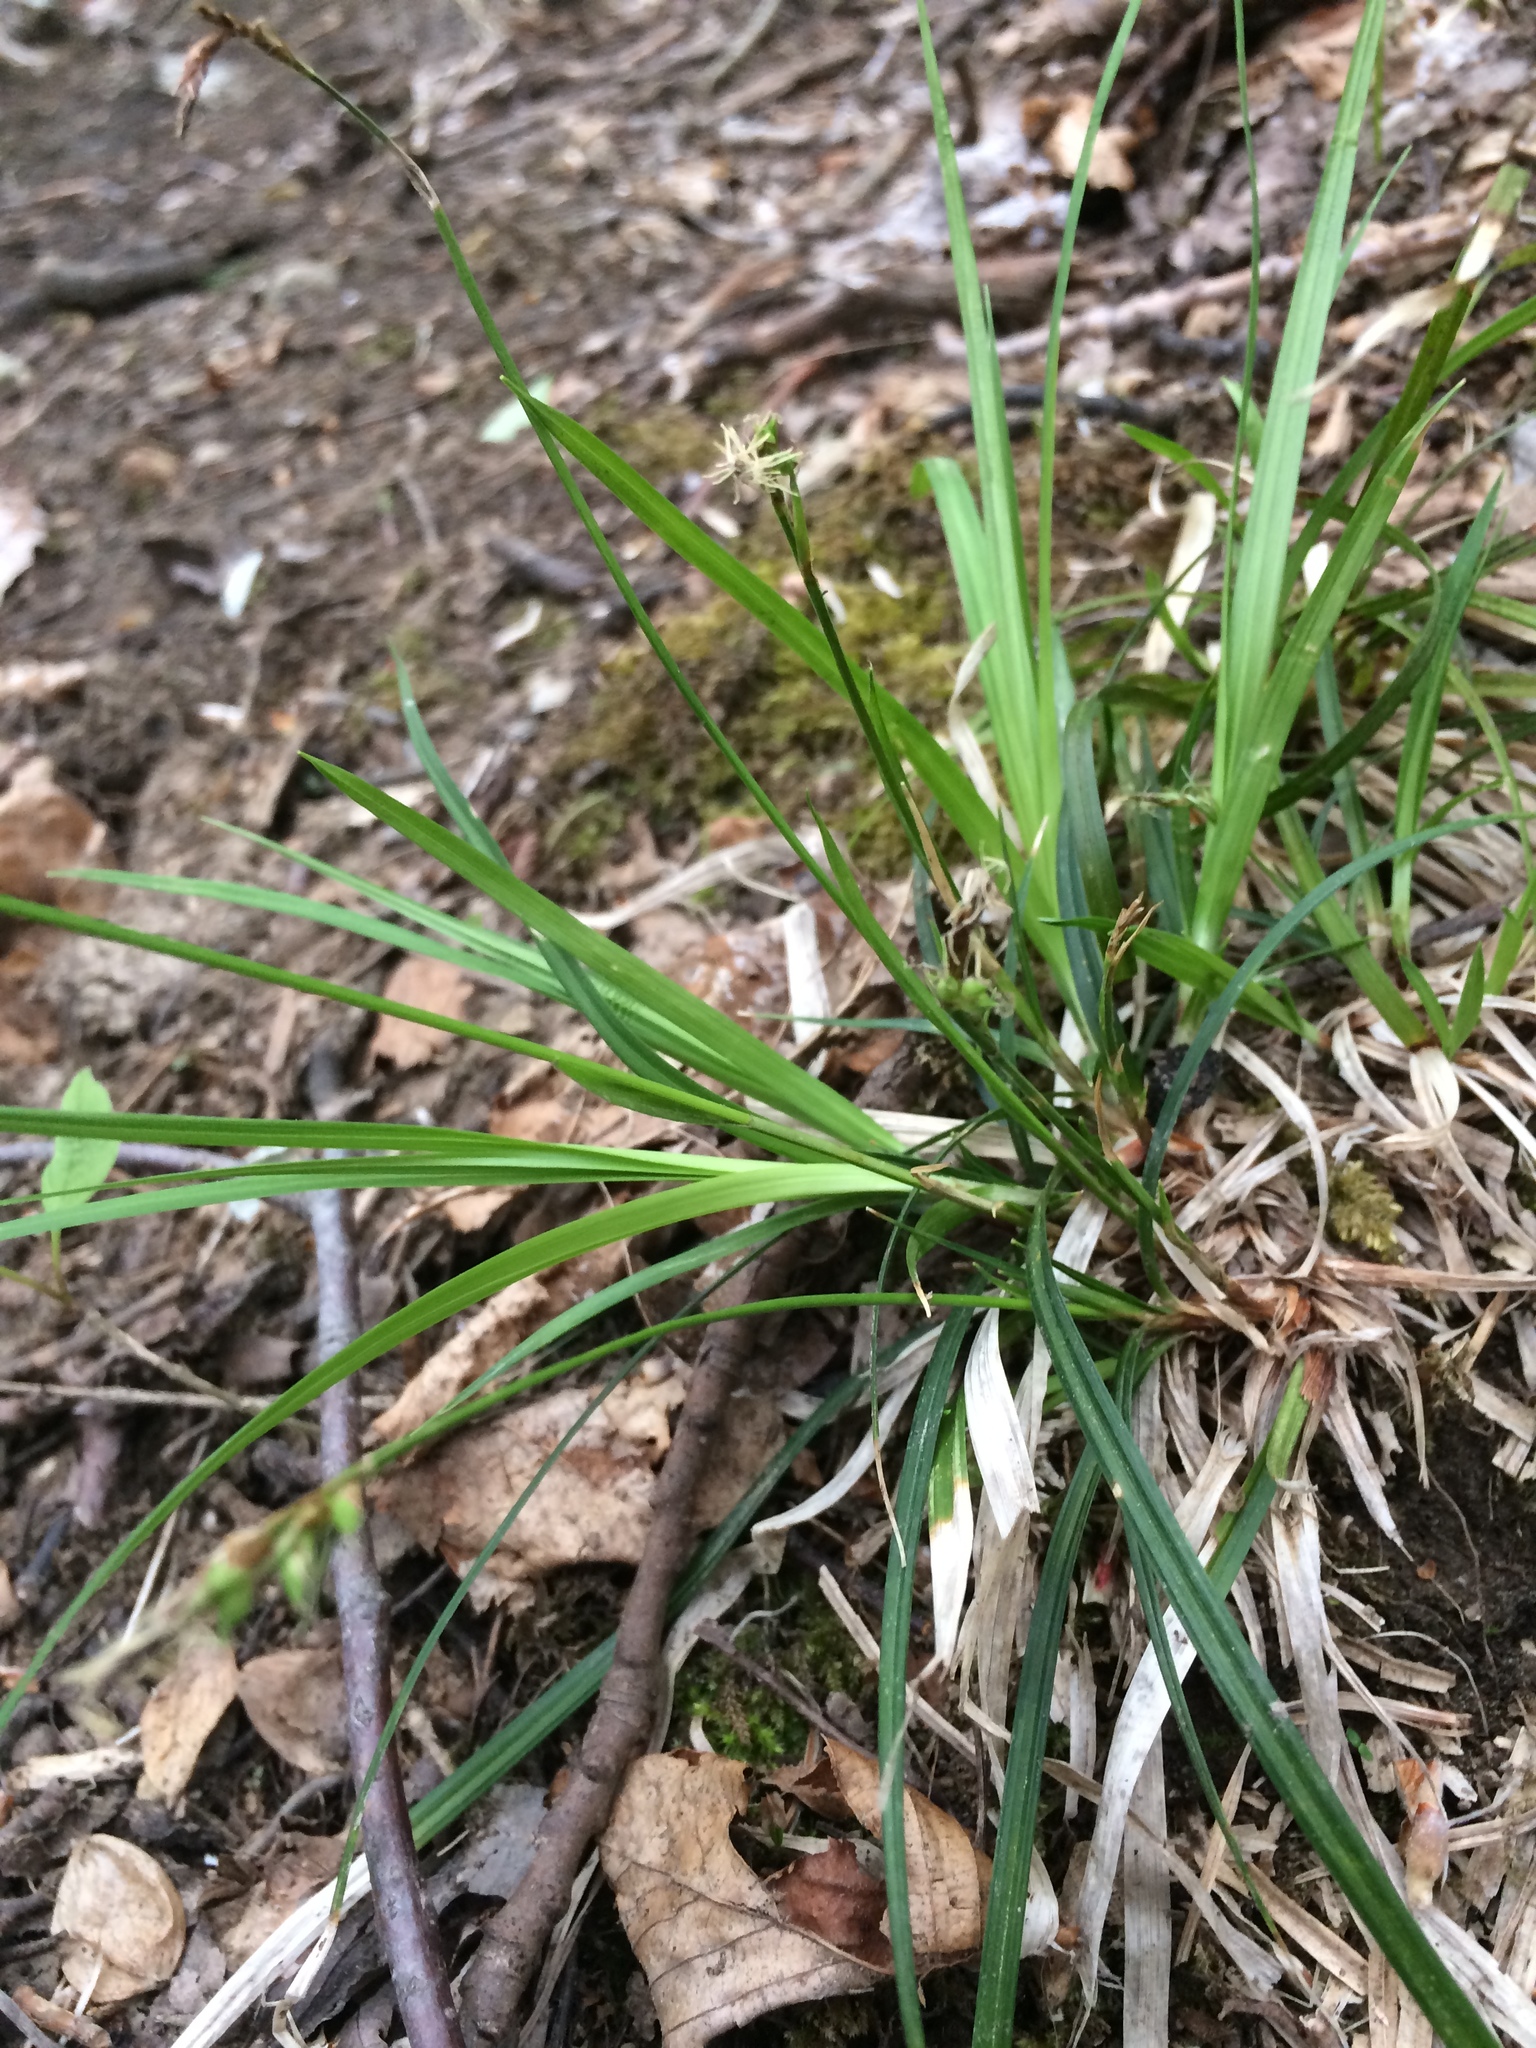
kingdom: Plantae
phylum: Tracheophyta
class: Liliopsida
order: Poales
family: Cyperaceae
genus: Carex
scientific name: Carex communis
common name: Colonial oak sedge
